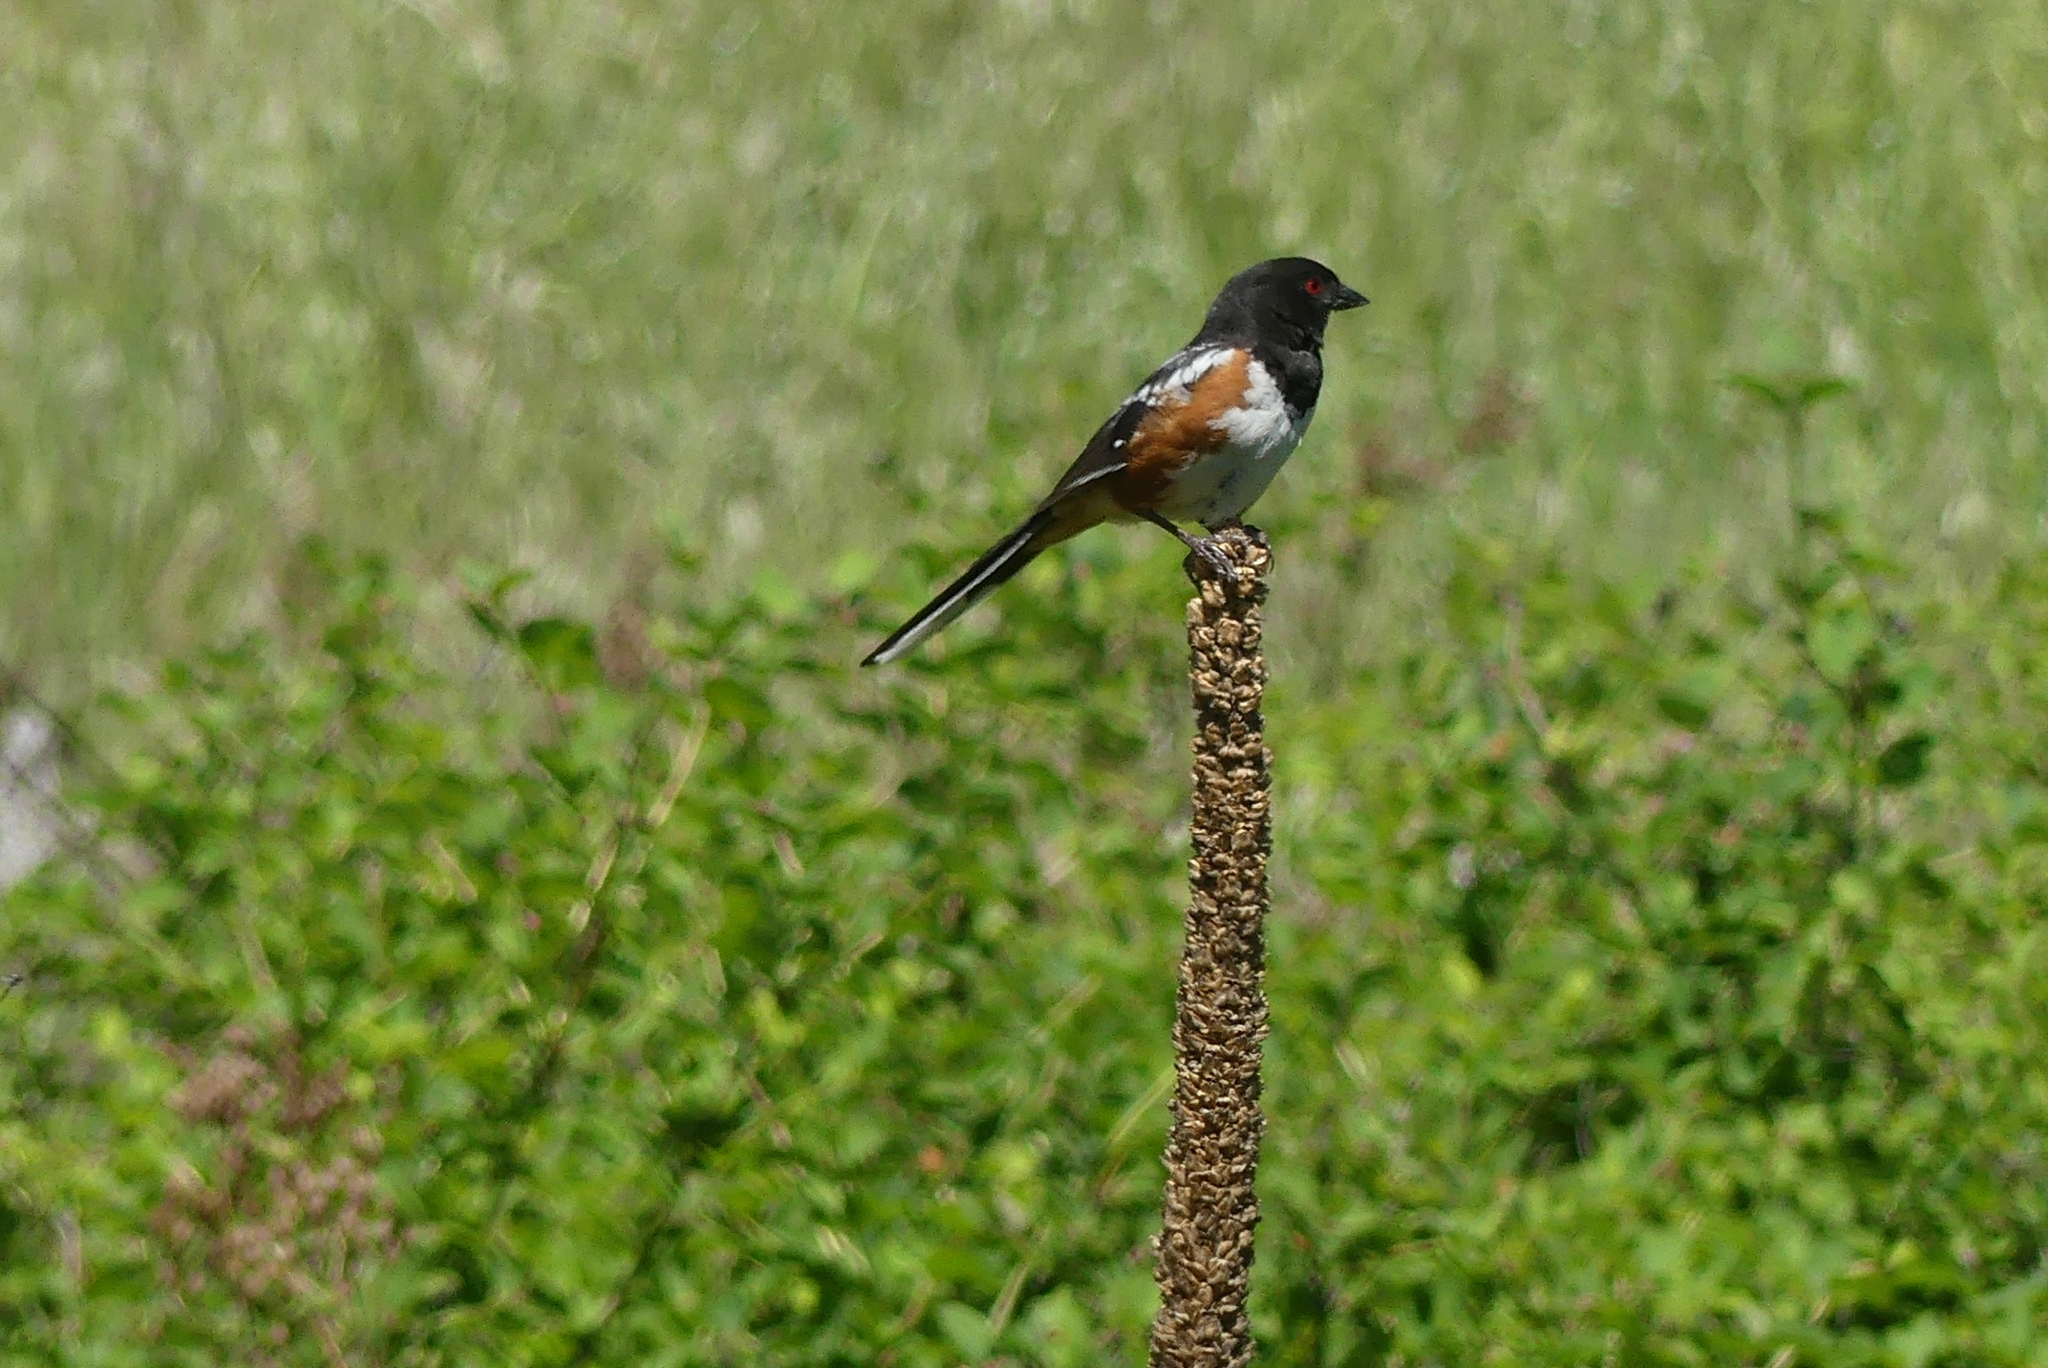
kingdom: Animalia
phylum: Chordata
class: Aves
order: Passeriformes
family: Passerellidae
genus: Pipilo
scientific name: Pipilo maculatus
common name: Spotted towhee
